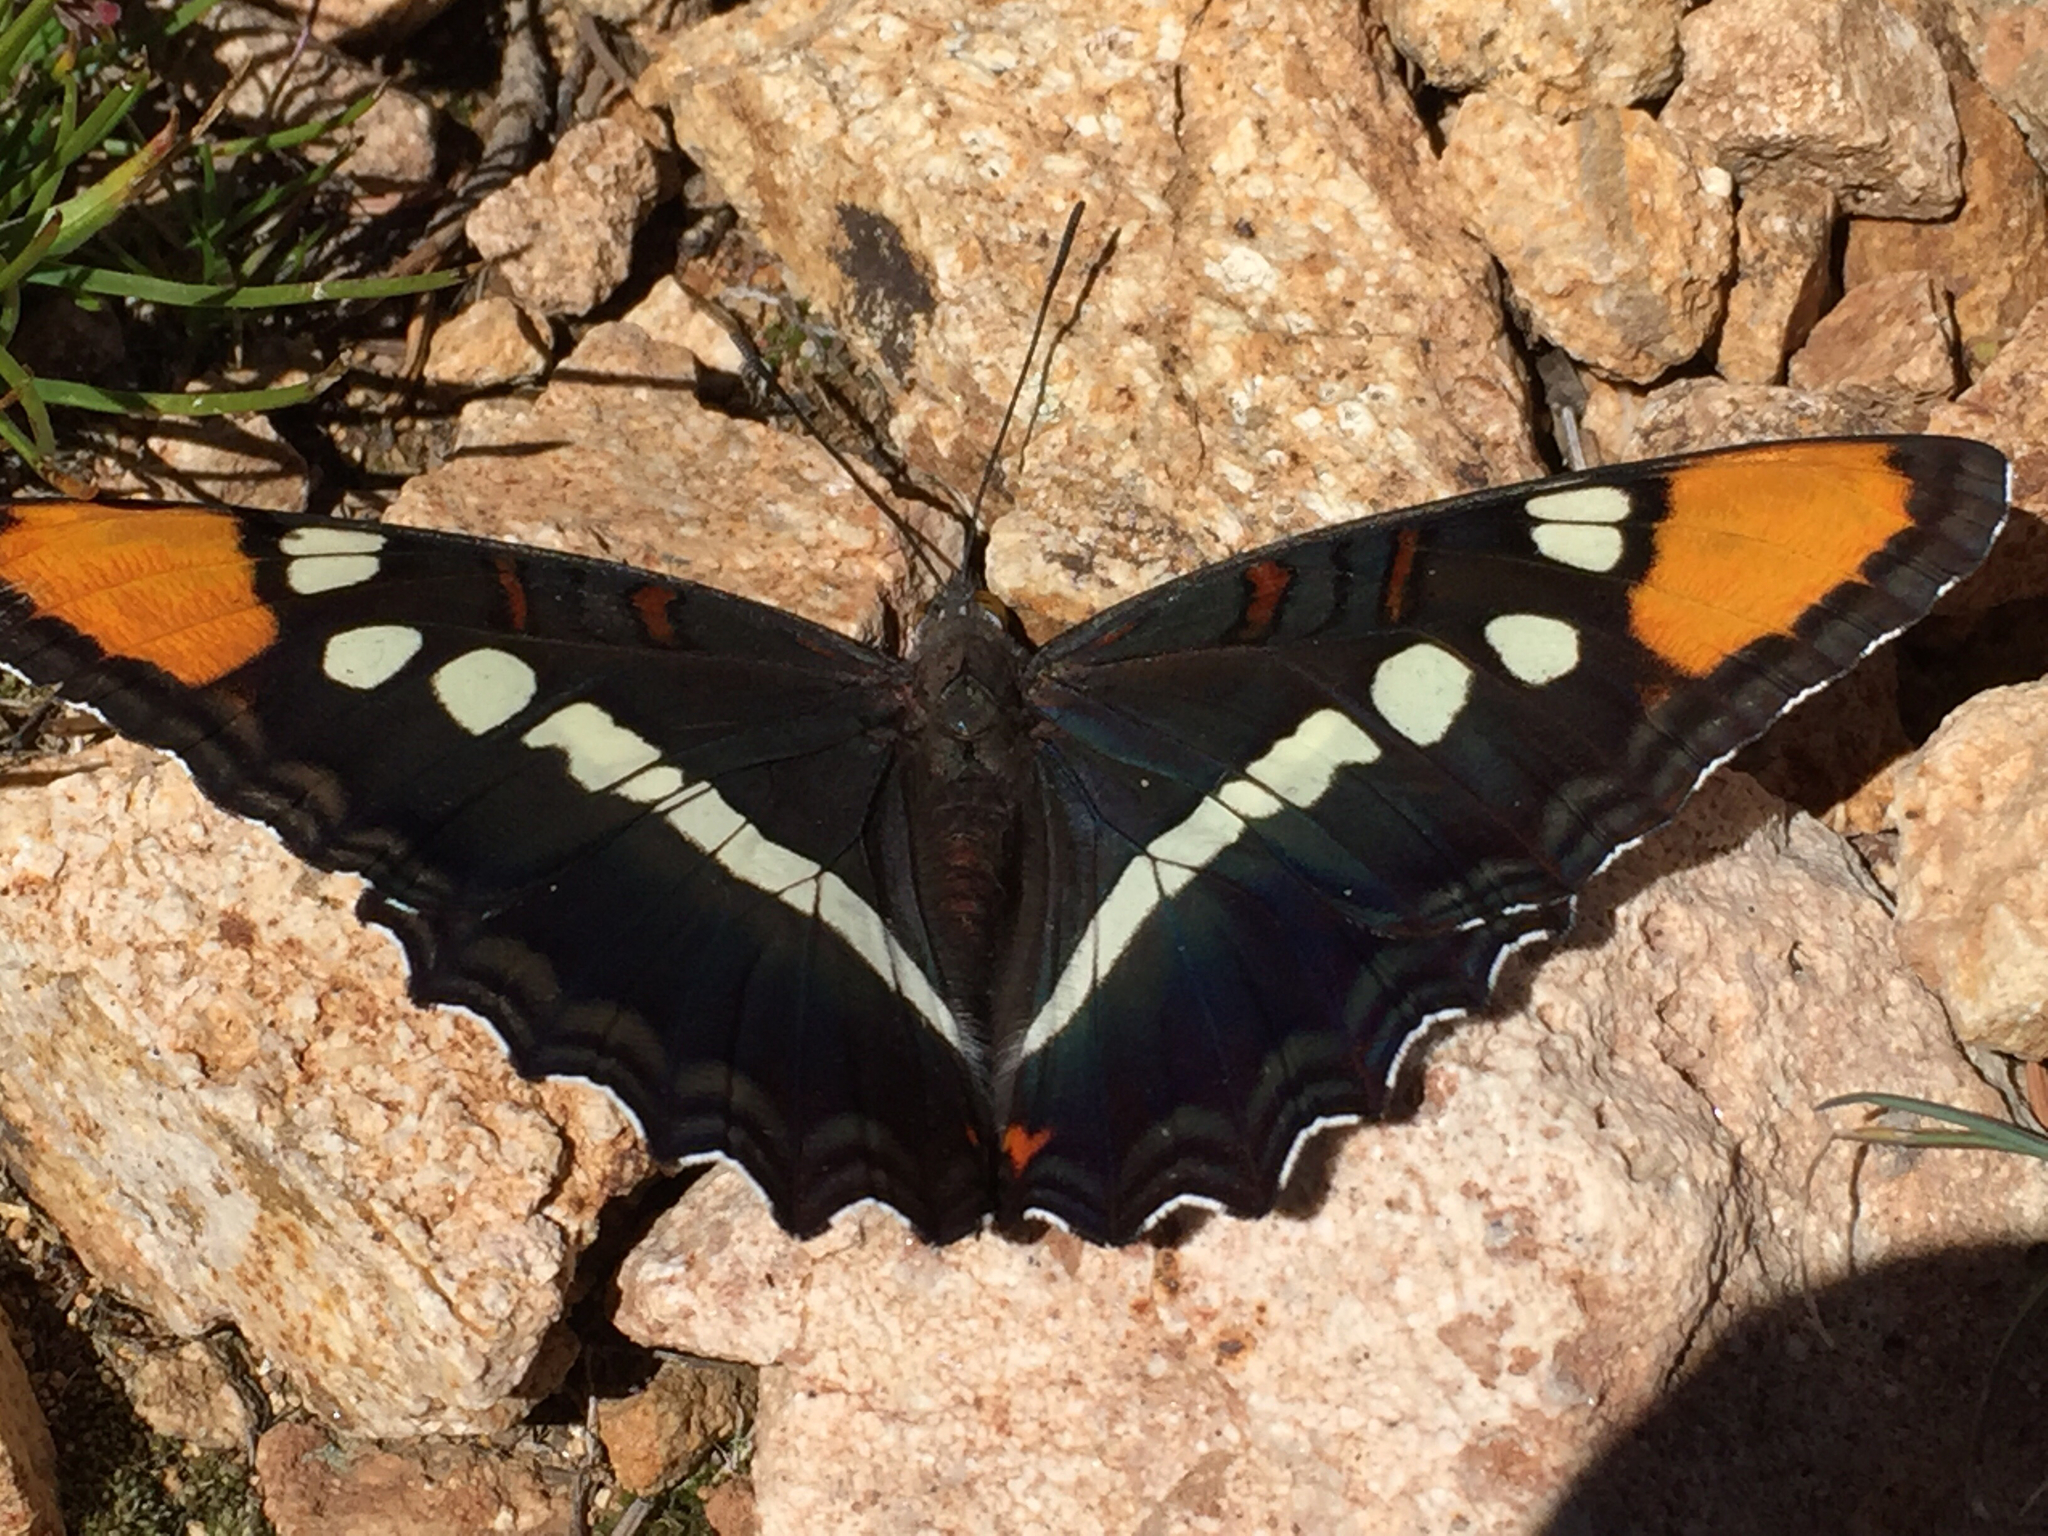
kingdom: Animalia
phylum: Arthropoda
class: Insecta
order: Lepidoptera
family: Nymphalidae
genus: Limenitis
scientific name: Limenitis bredowii
